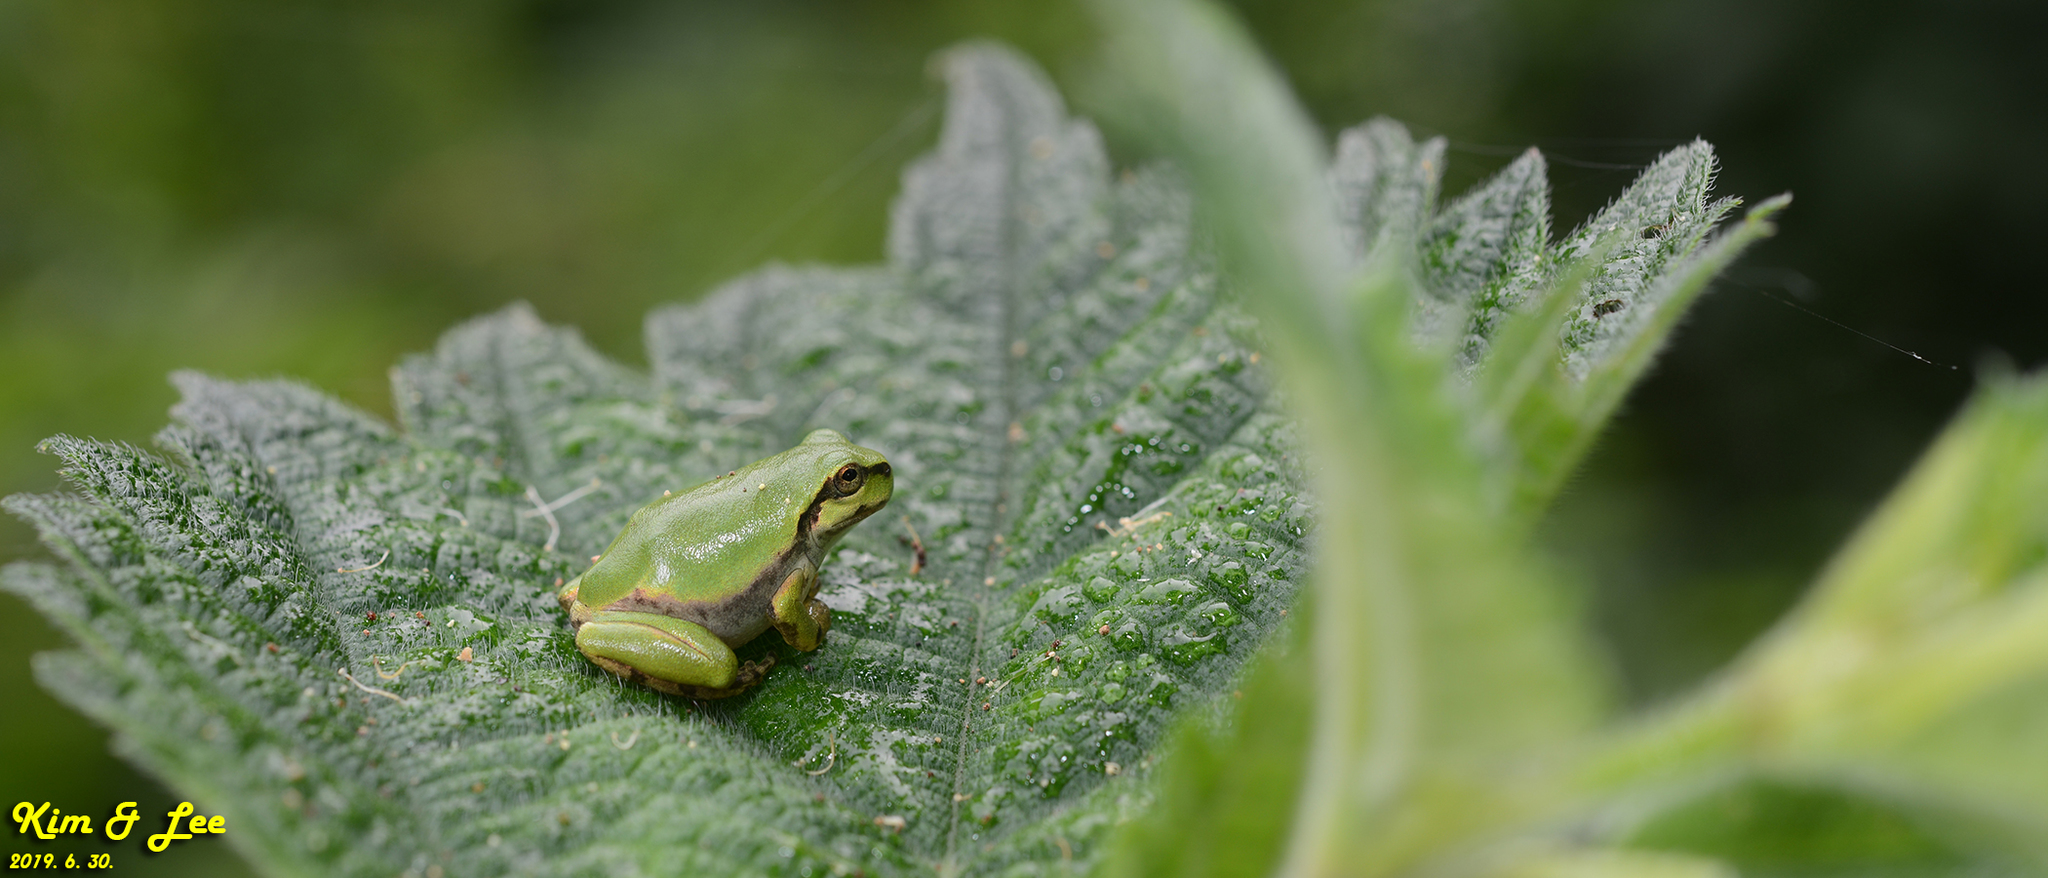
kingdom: Animalia
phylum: Chordata
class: Amphibia
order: Anura
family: Hylidae
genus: Dryophytes
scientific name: Dryophytes japonicus
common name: Japanese treefrog
